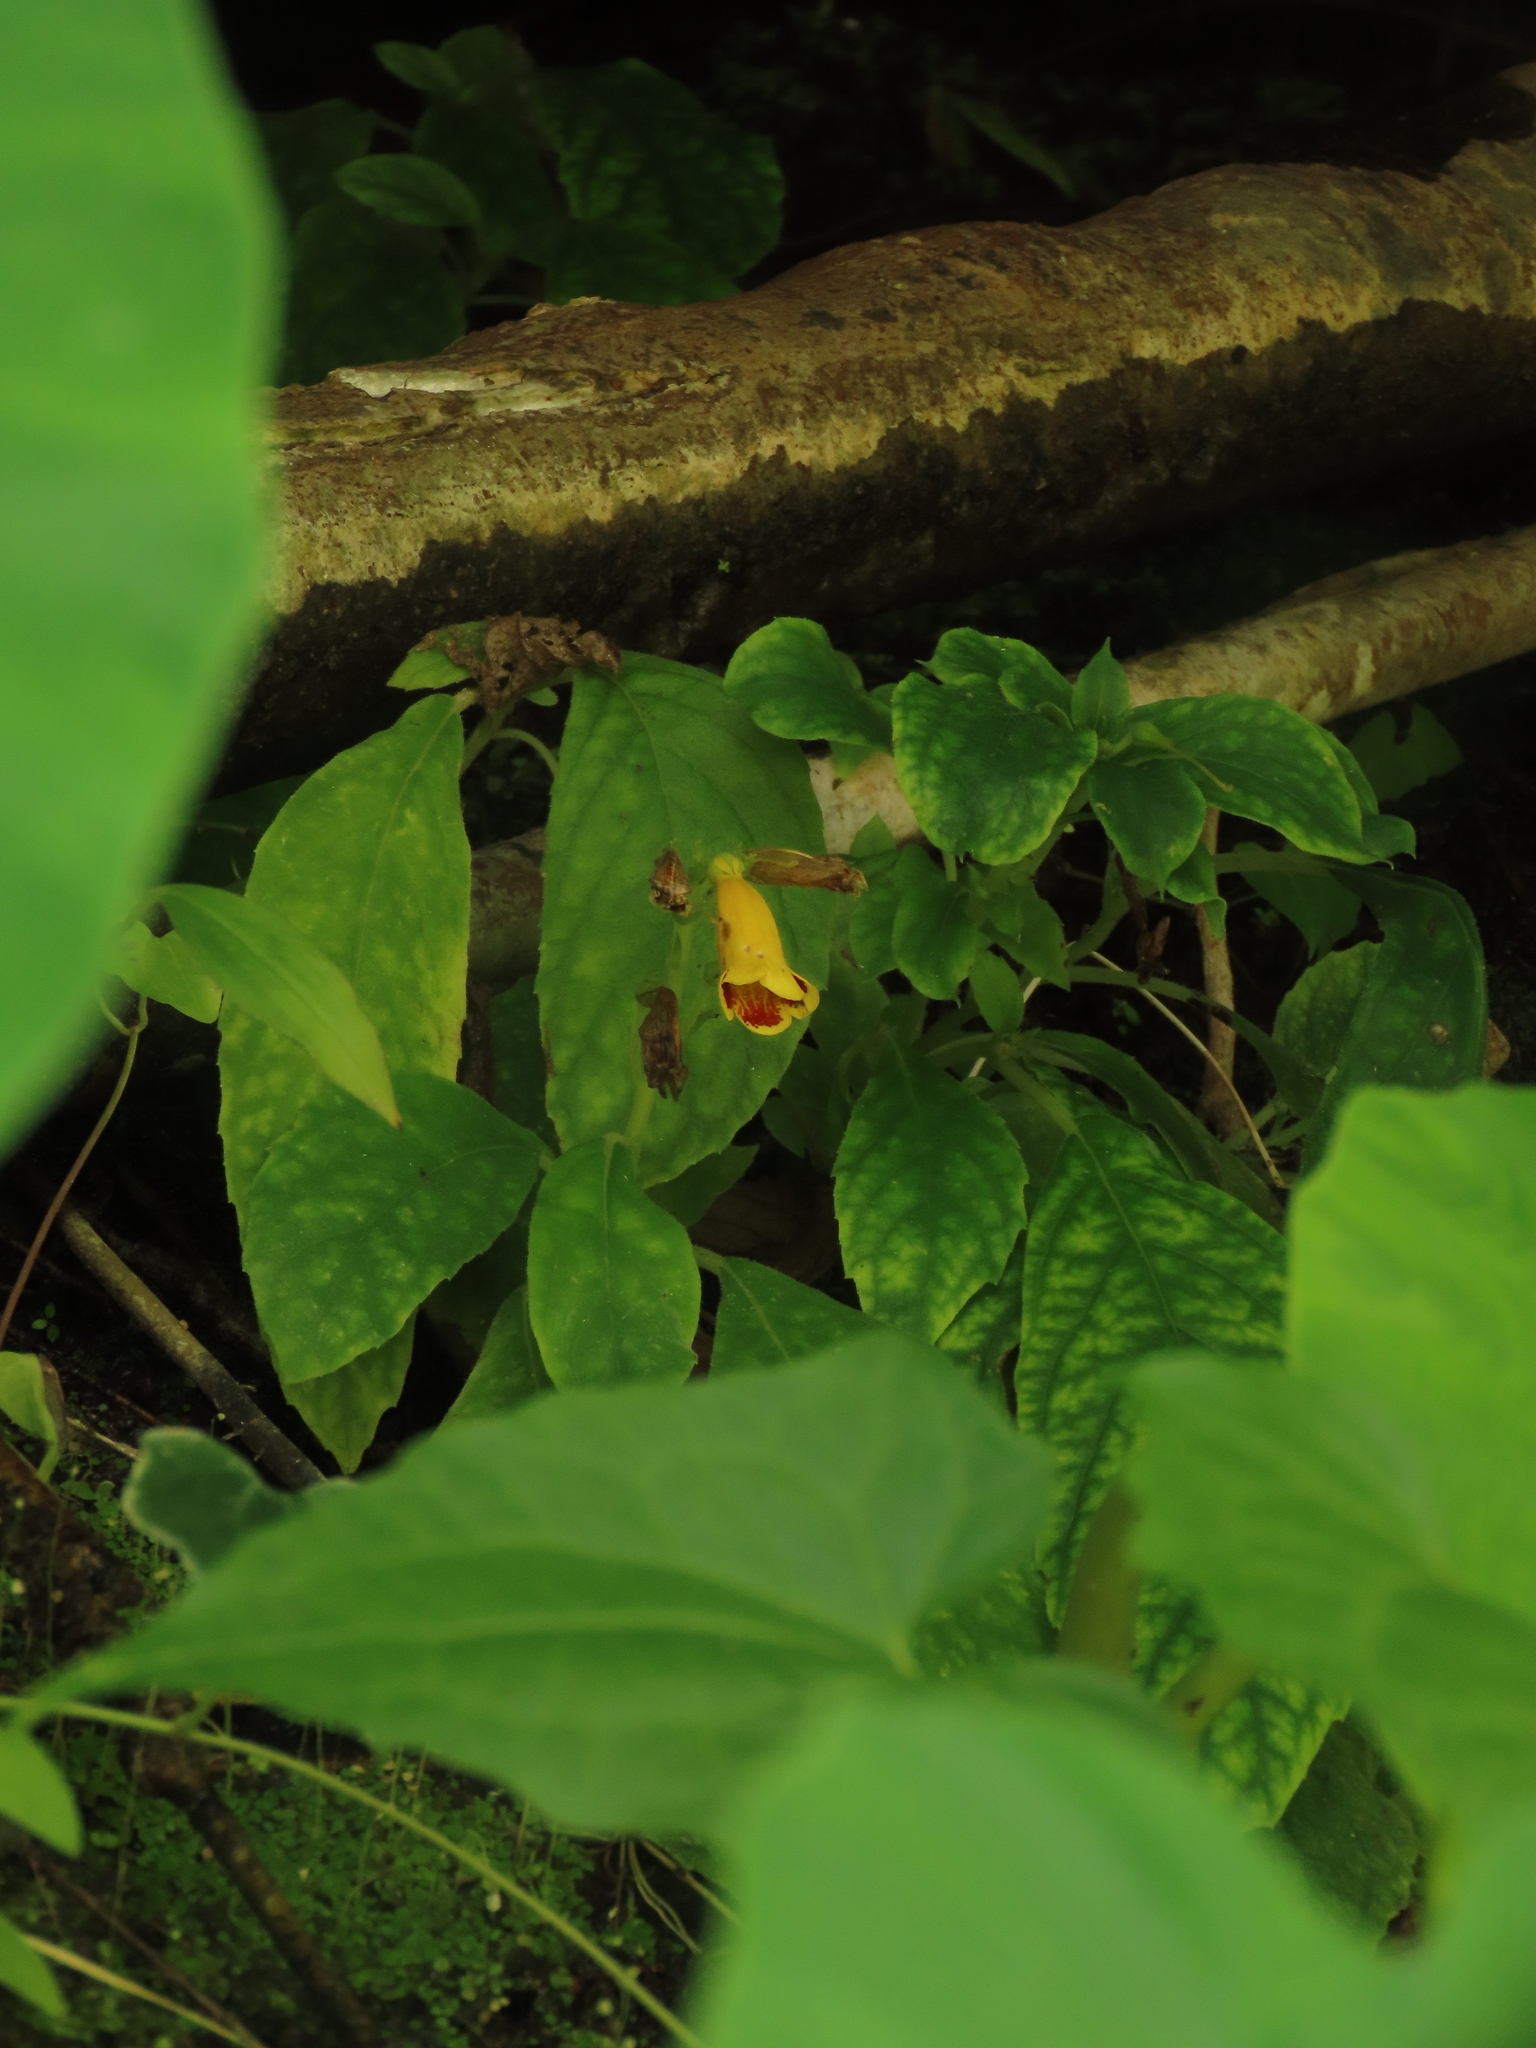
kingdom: Plantae
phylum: Tracheophyta
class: Magnoliopsida
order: Lamiales
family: Gesneriaceae
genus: Titanotrichum
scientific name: Titanotrichum oldhamii
